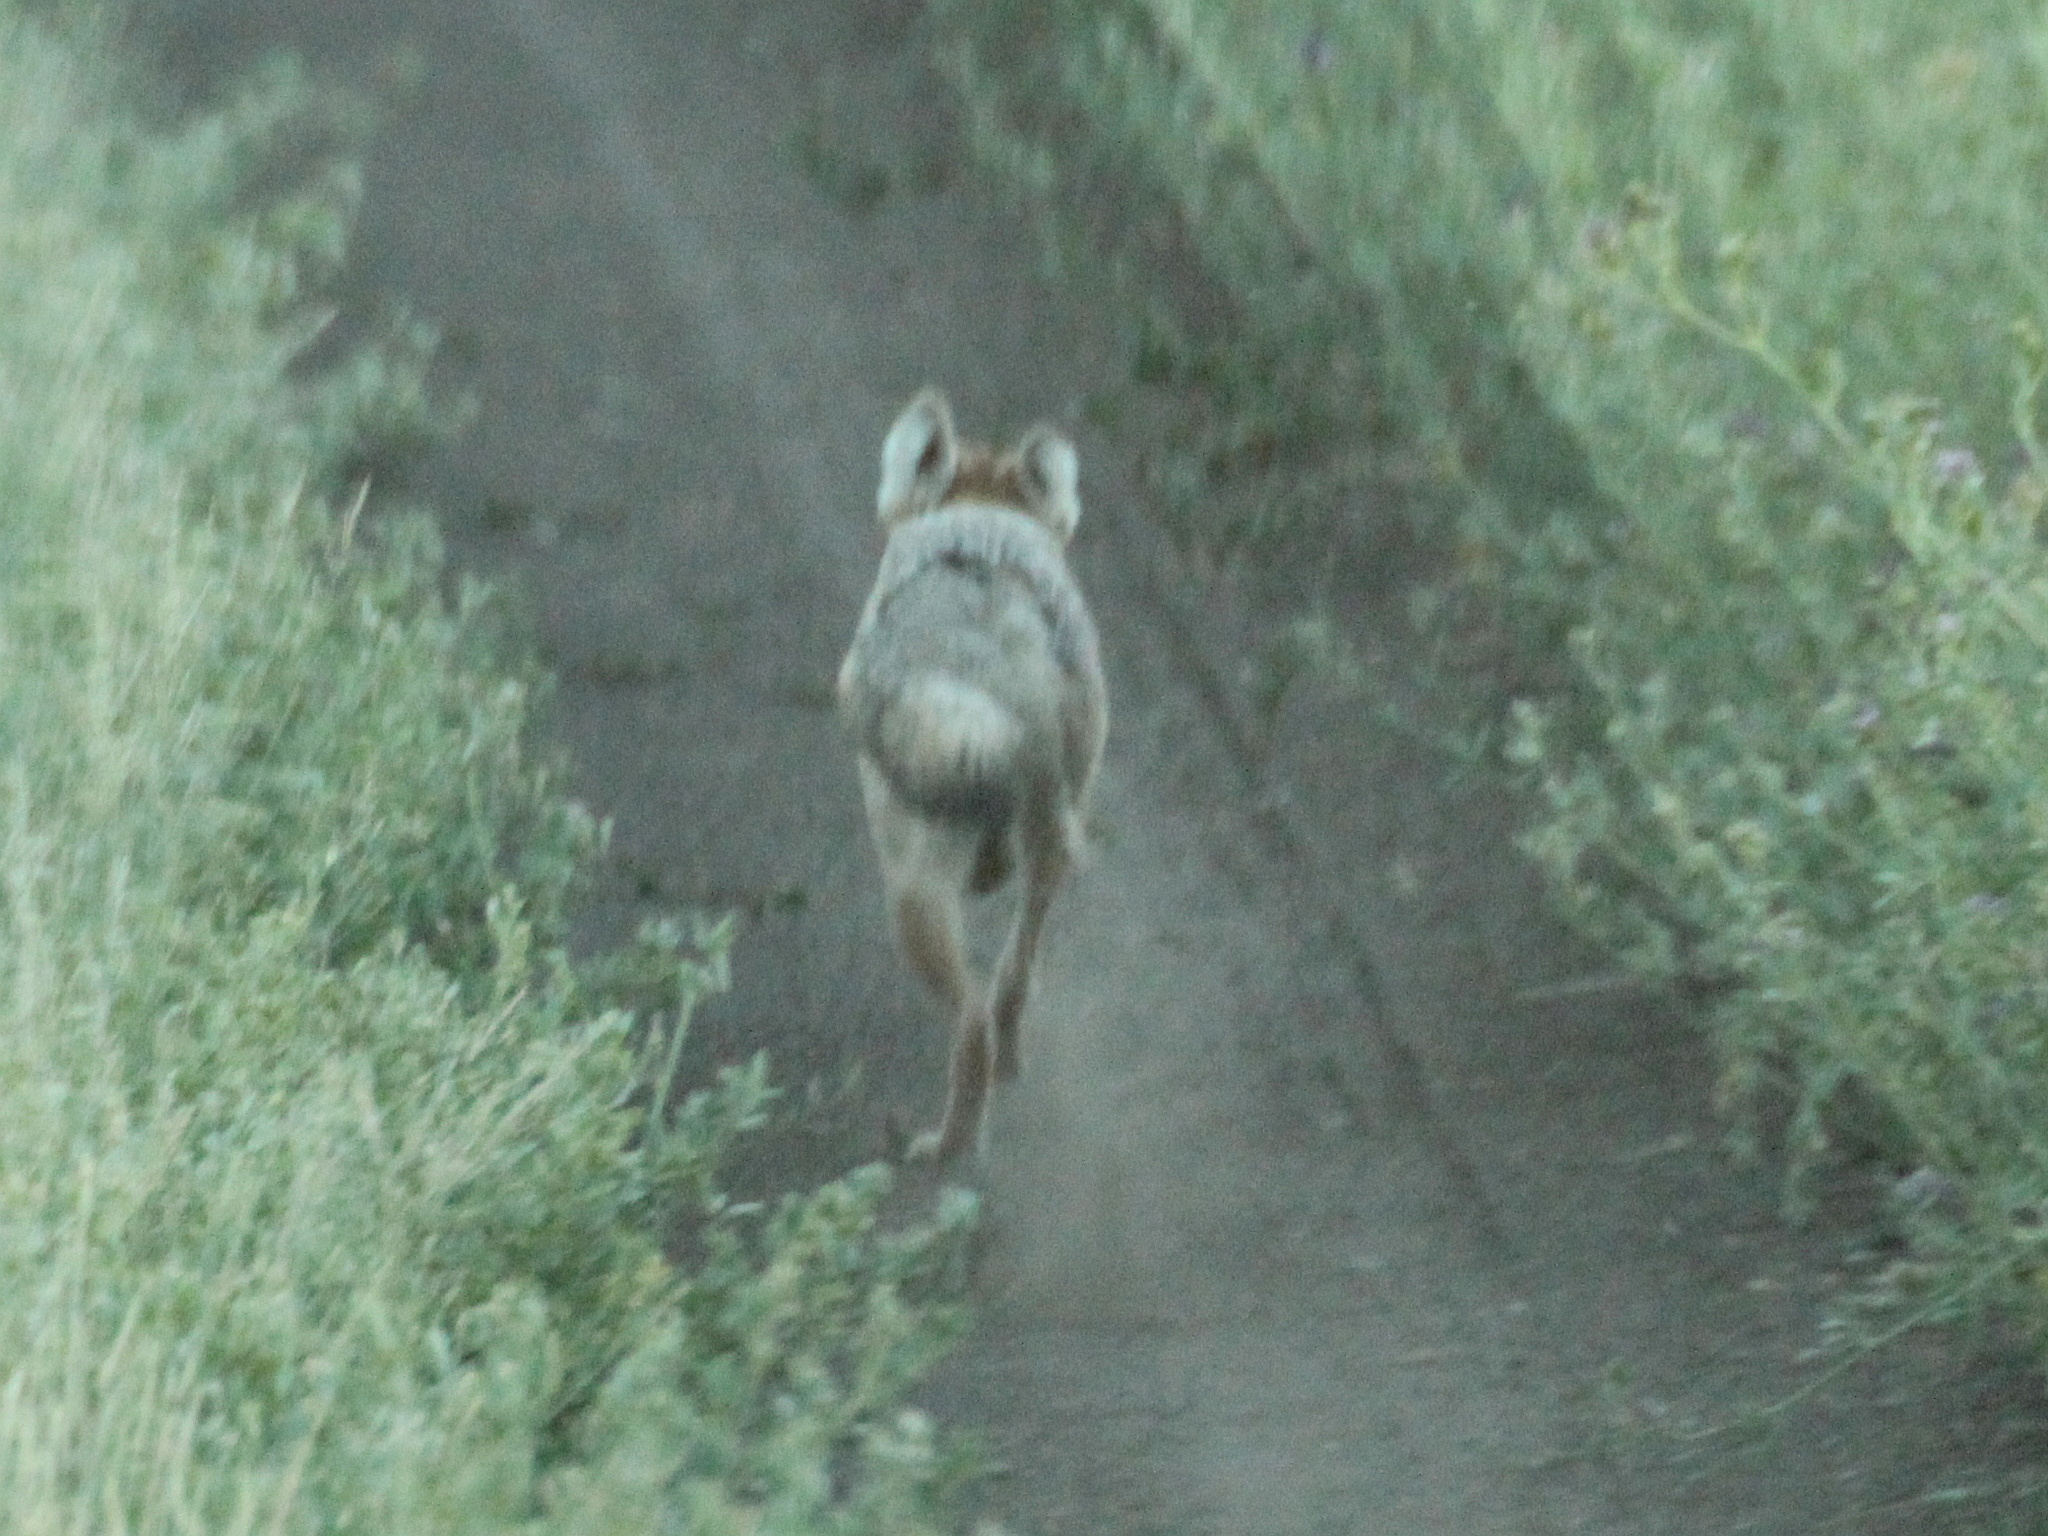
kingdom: Animalia
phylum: Chordata
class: Mammalia
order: Carnivora
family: Canidae
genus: Vulpes
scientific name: Vulpes corsac
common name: Corsac fox
